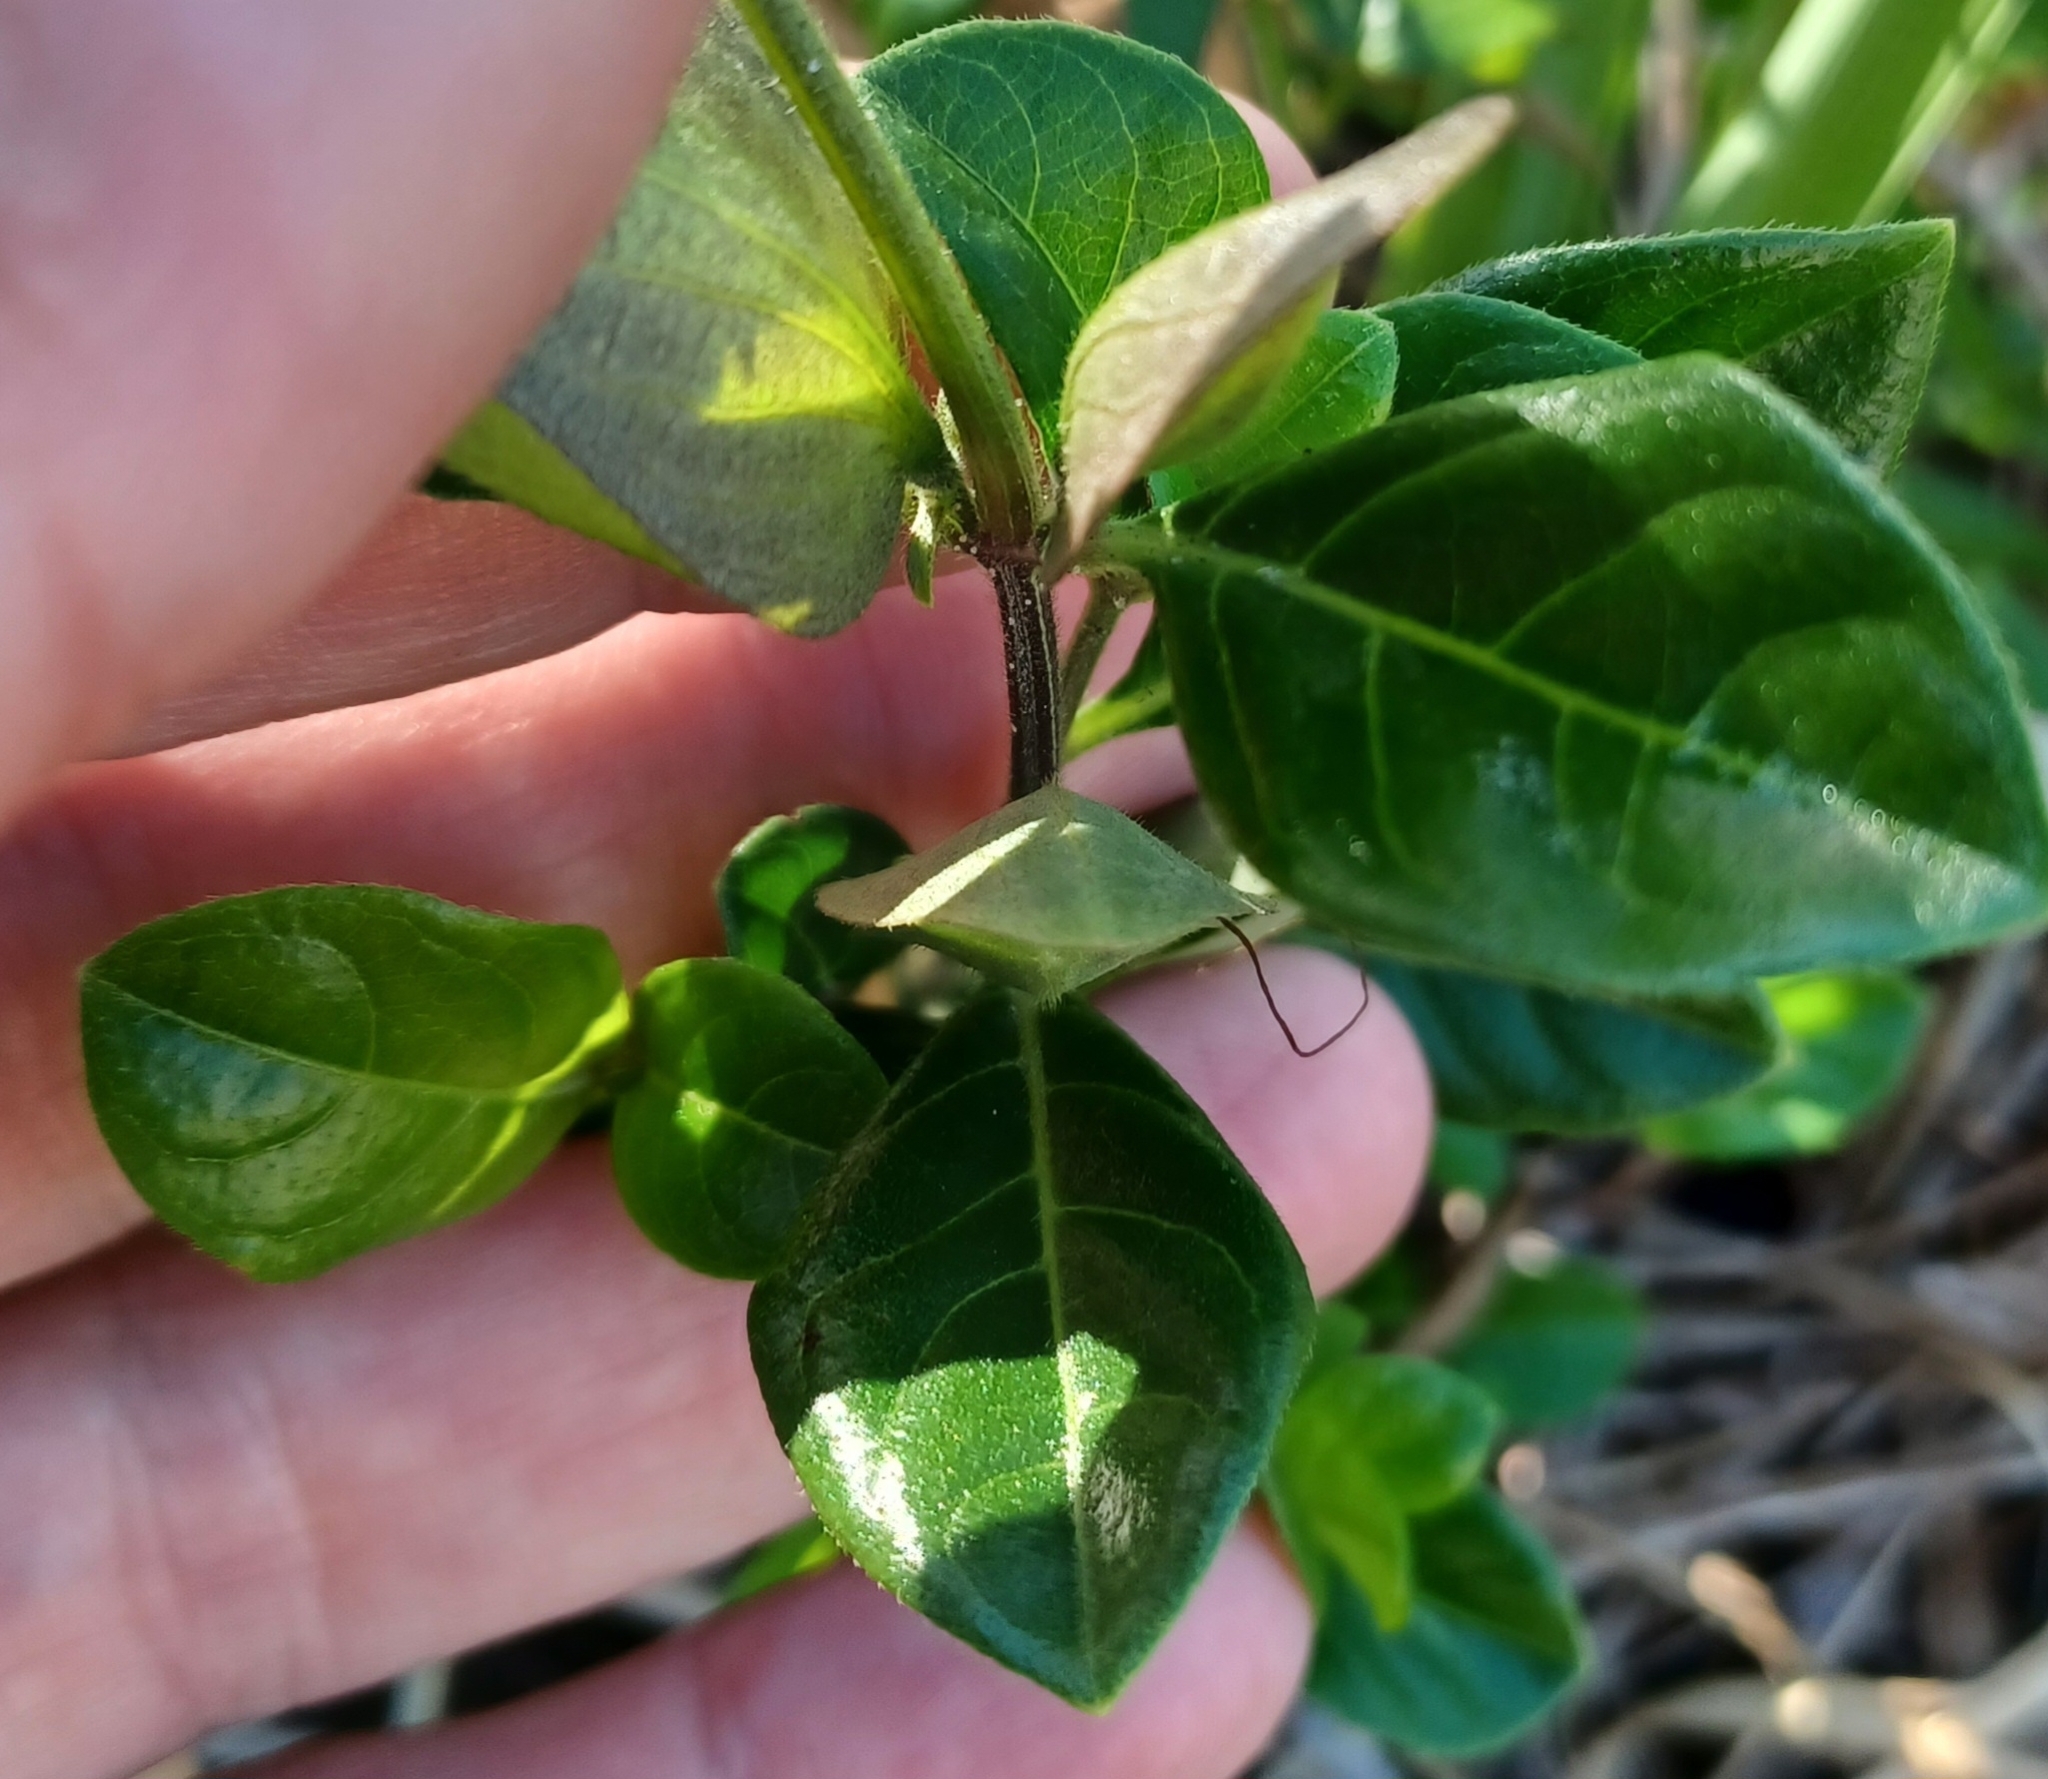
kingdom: Plantae
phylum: Tracheophyta
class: Magnoliopsida
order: Lamiales
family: Acanthaceae
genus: Barleria
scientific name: Barleria repens
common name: Pink-ruellia
